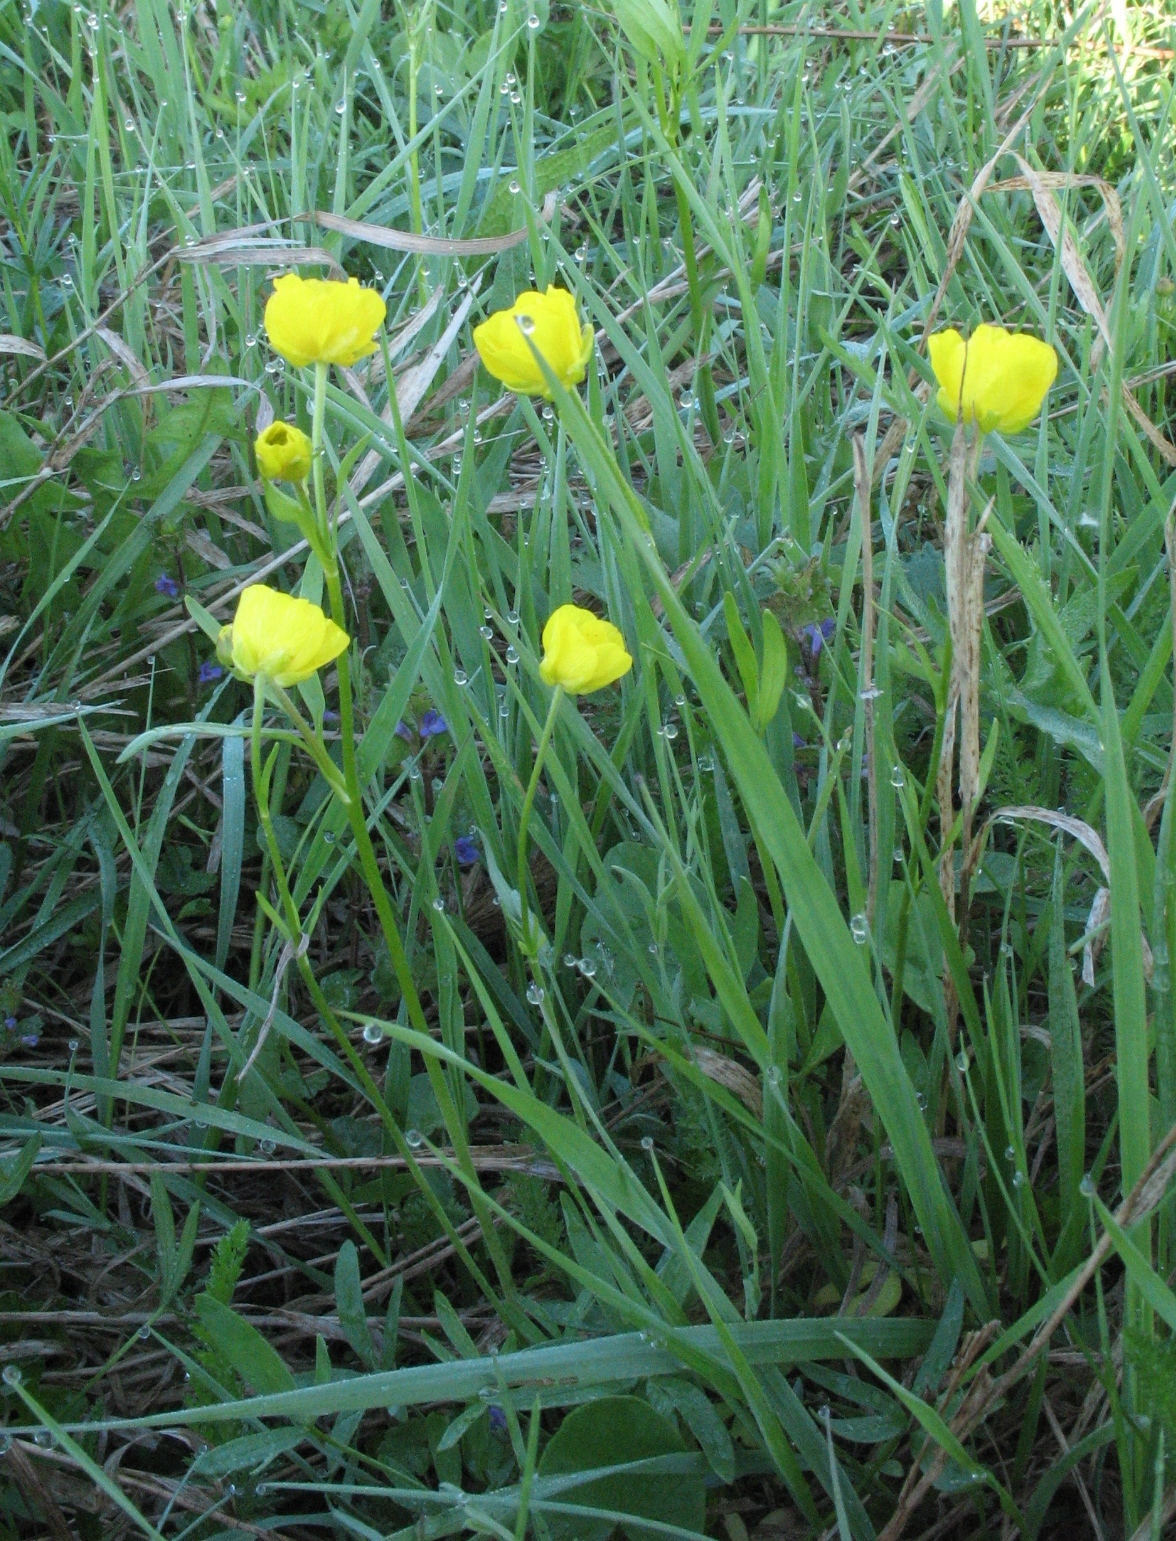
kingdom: Plantae
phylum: Tracheophyta
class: Magnoliopsida
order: Ranunculales
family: Ranunculaceae
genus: Ranunculus
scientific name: Ranunculus pedatus
